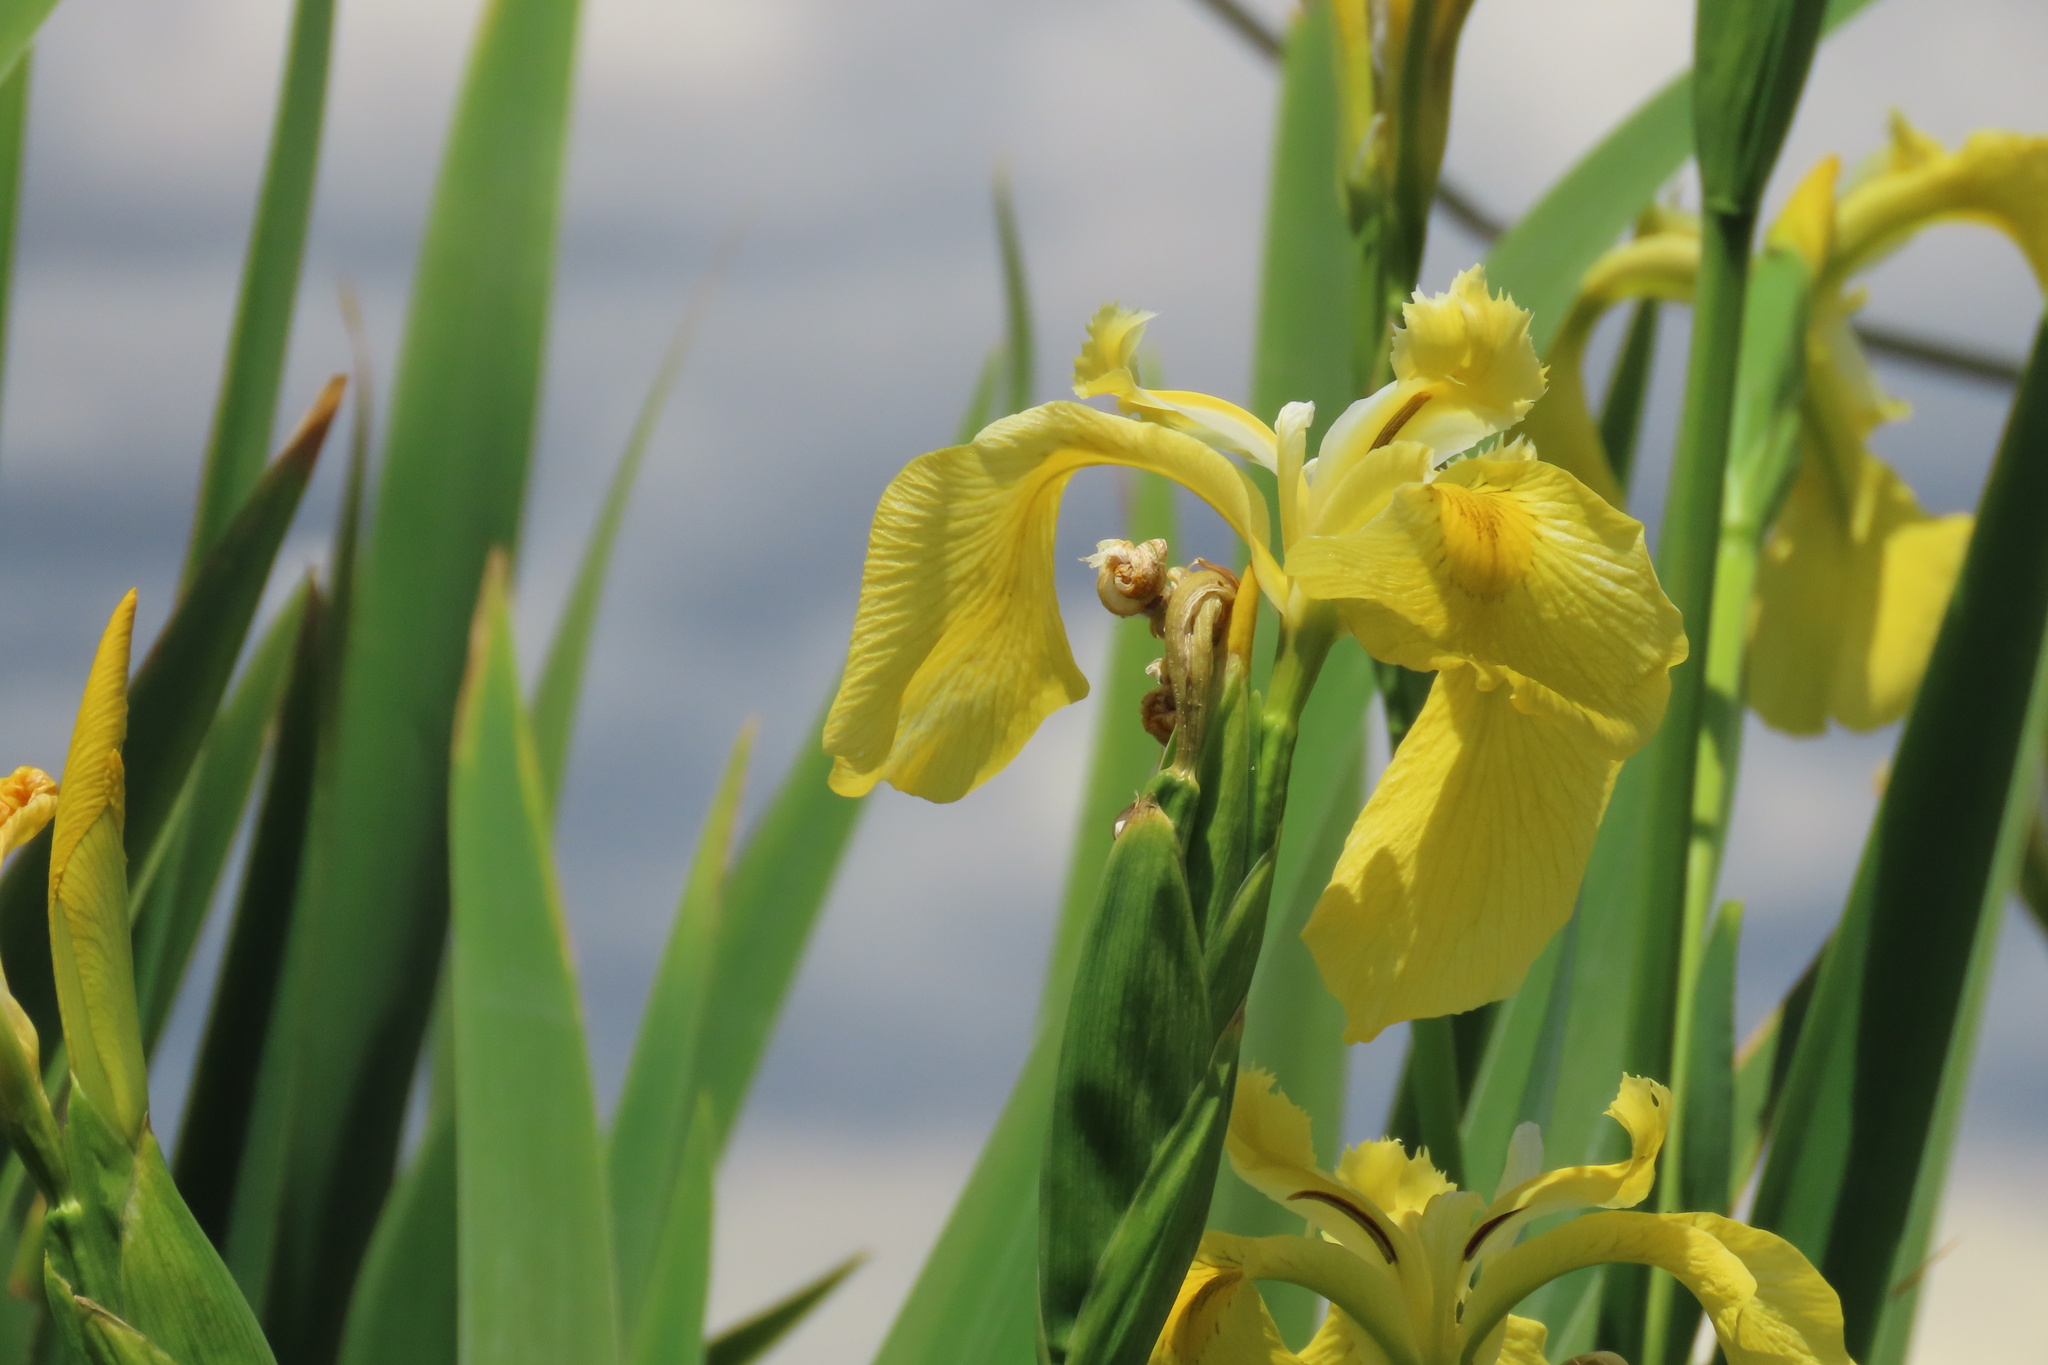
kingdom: Plantae
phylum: Tracheophyta
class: Liliopsida
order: Asparagales
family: Iridaceae
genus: Iris
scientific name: Iris pseudacorus
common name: Yellow flag
